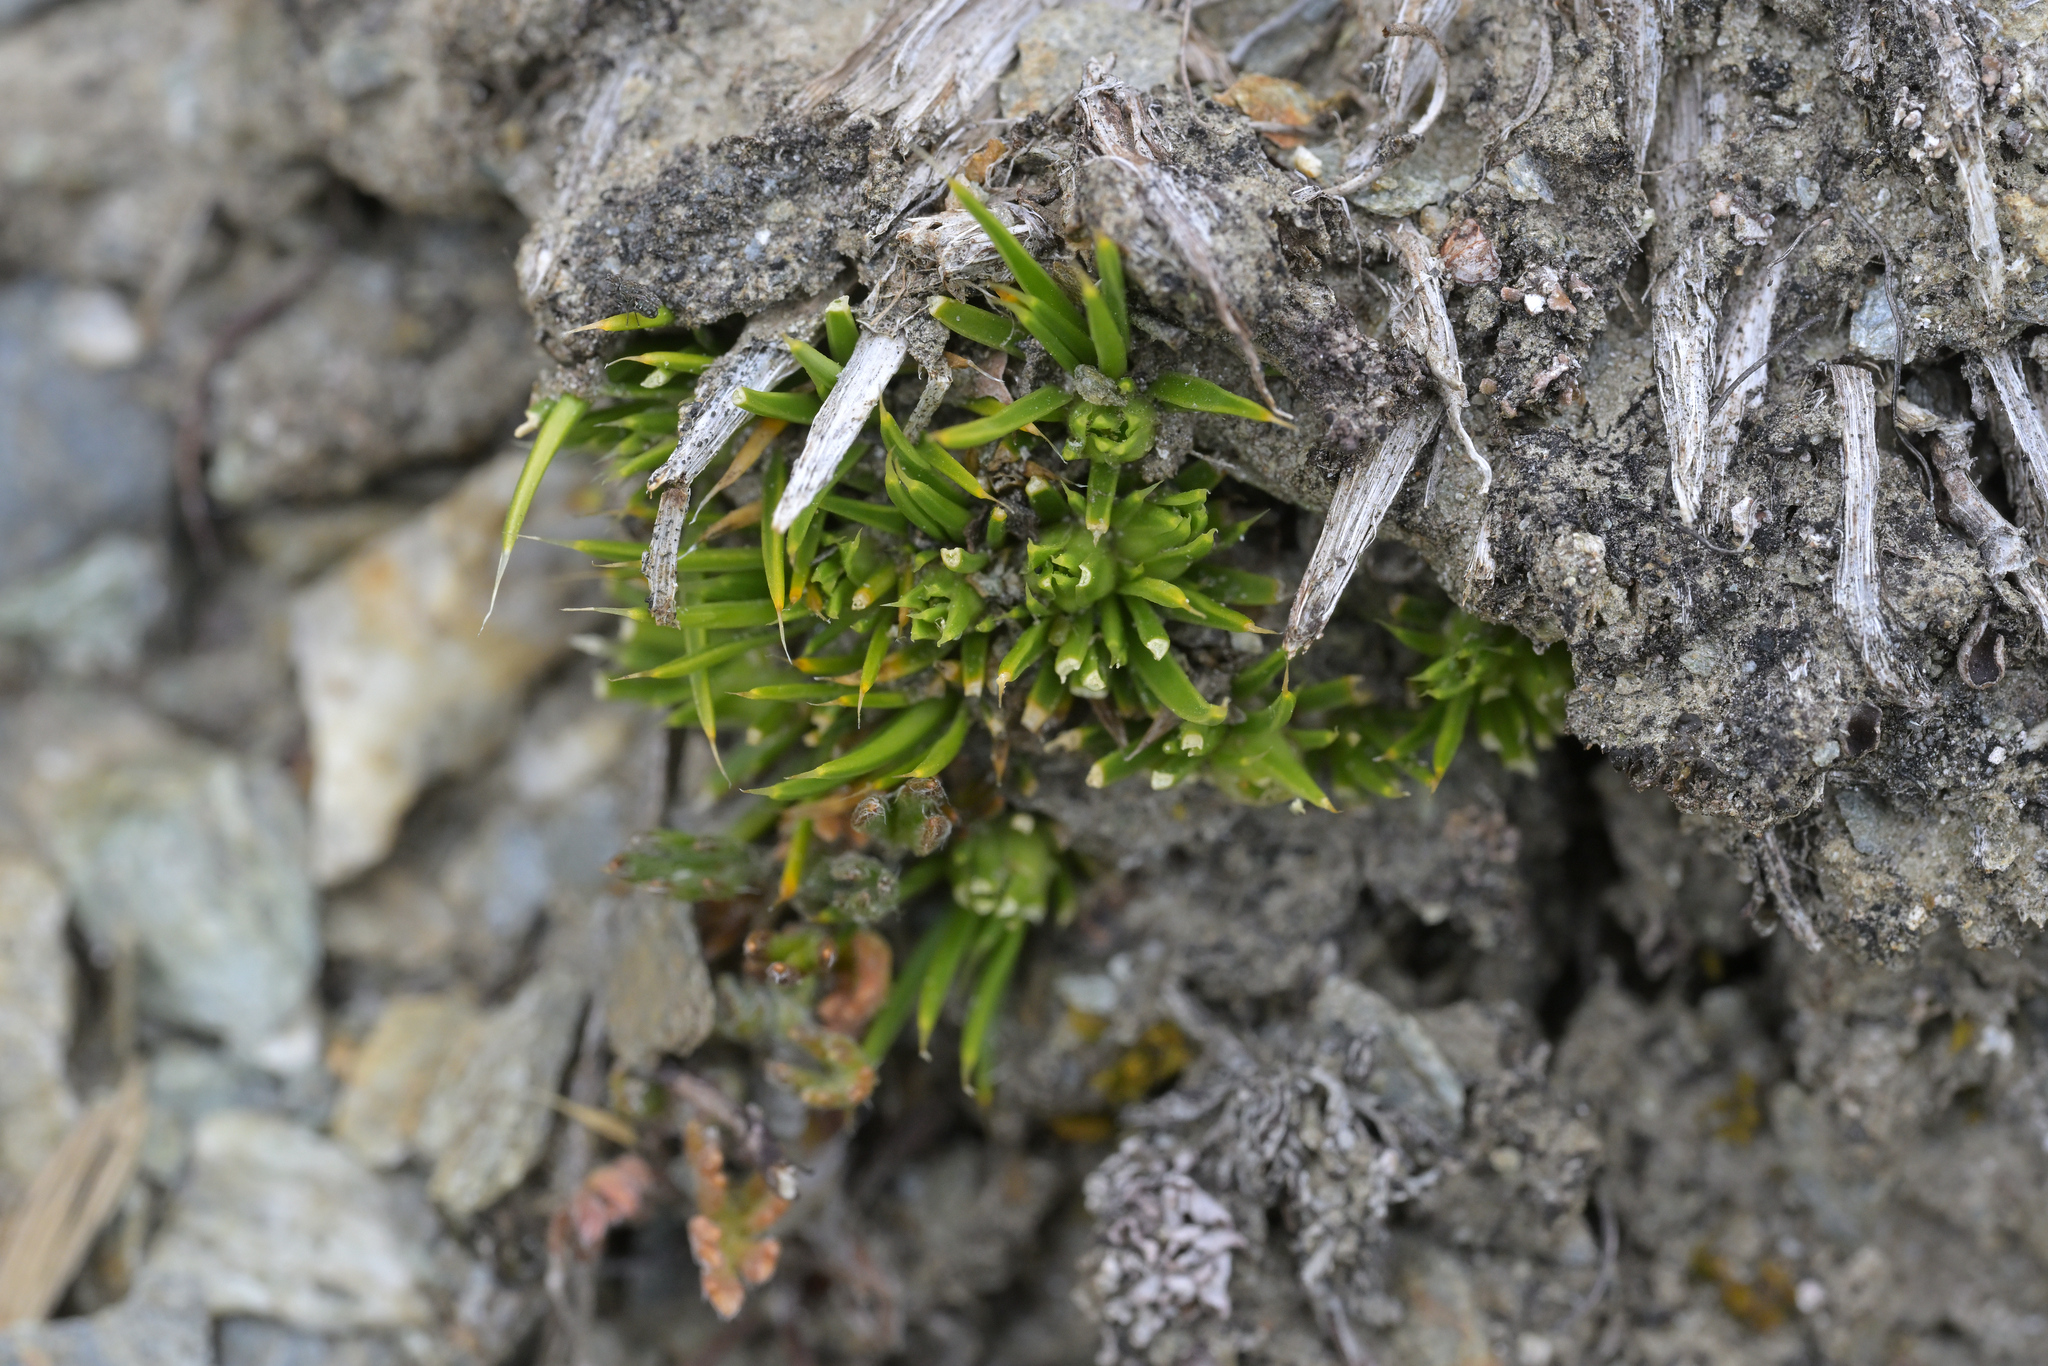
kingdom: Plantae
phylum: Tracheophyta
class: Magnoliopsida
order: Caryophyllales
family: Caryophyllaceae
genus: Colobanthus
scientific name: Colobanthus buchananii
